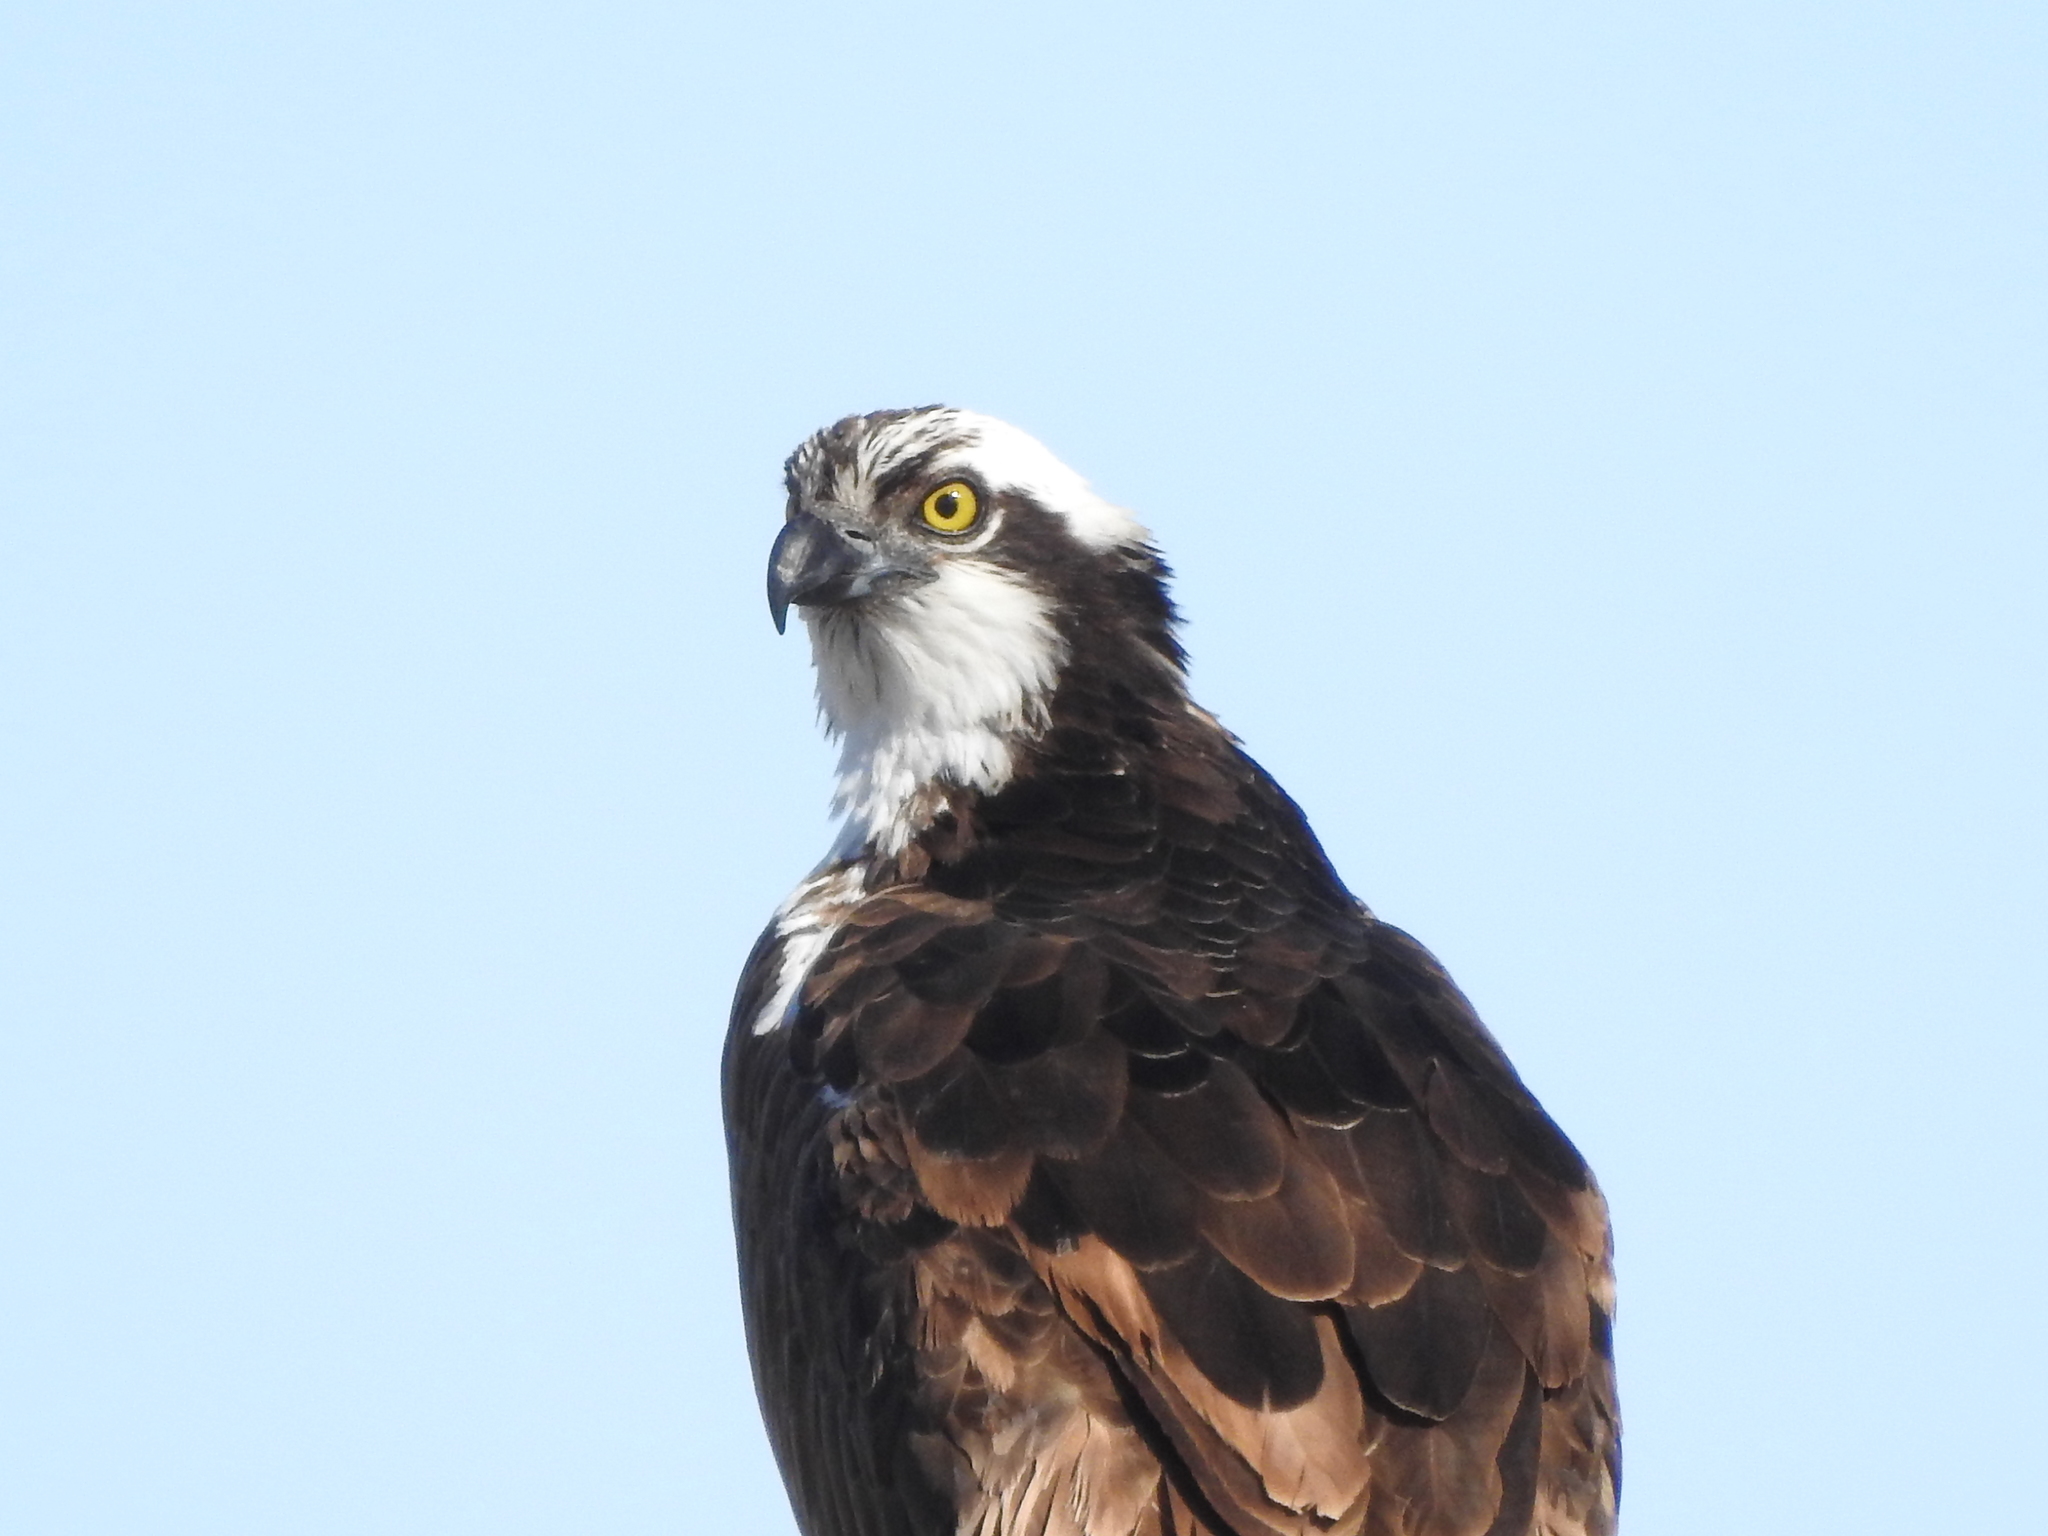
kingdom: Animalia
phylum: Chordata
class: Aves
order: Accipitriformes
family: Pandionidae
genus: Pandion
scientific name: Pandion haliaetus
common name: Osprey
